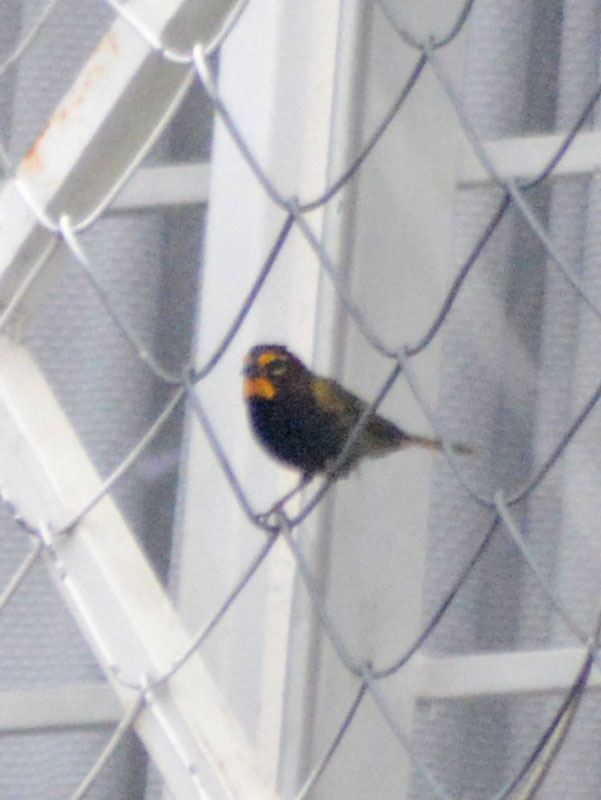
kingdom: Animalia
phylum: Chordata
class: Aves
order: Passeriformes
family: Thraupidae
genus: Tiaris
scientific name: Tiaris olivaceus
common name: Yellow-faced grassquit
